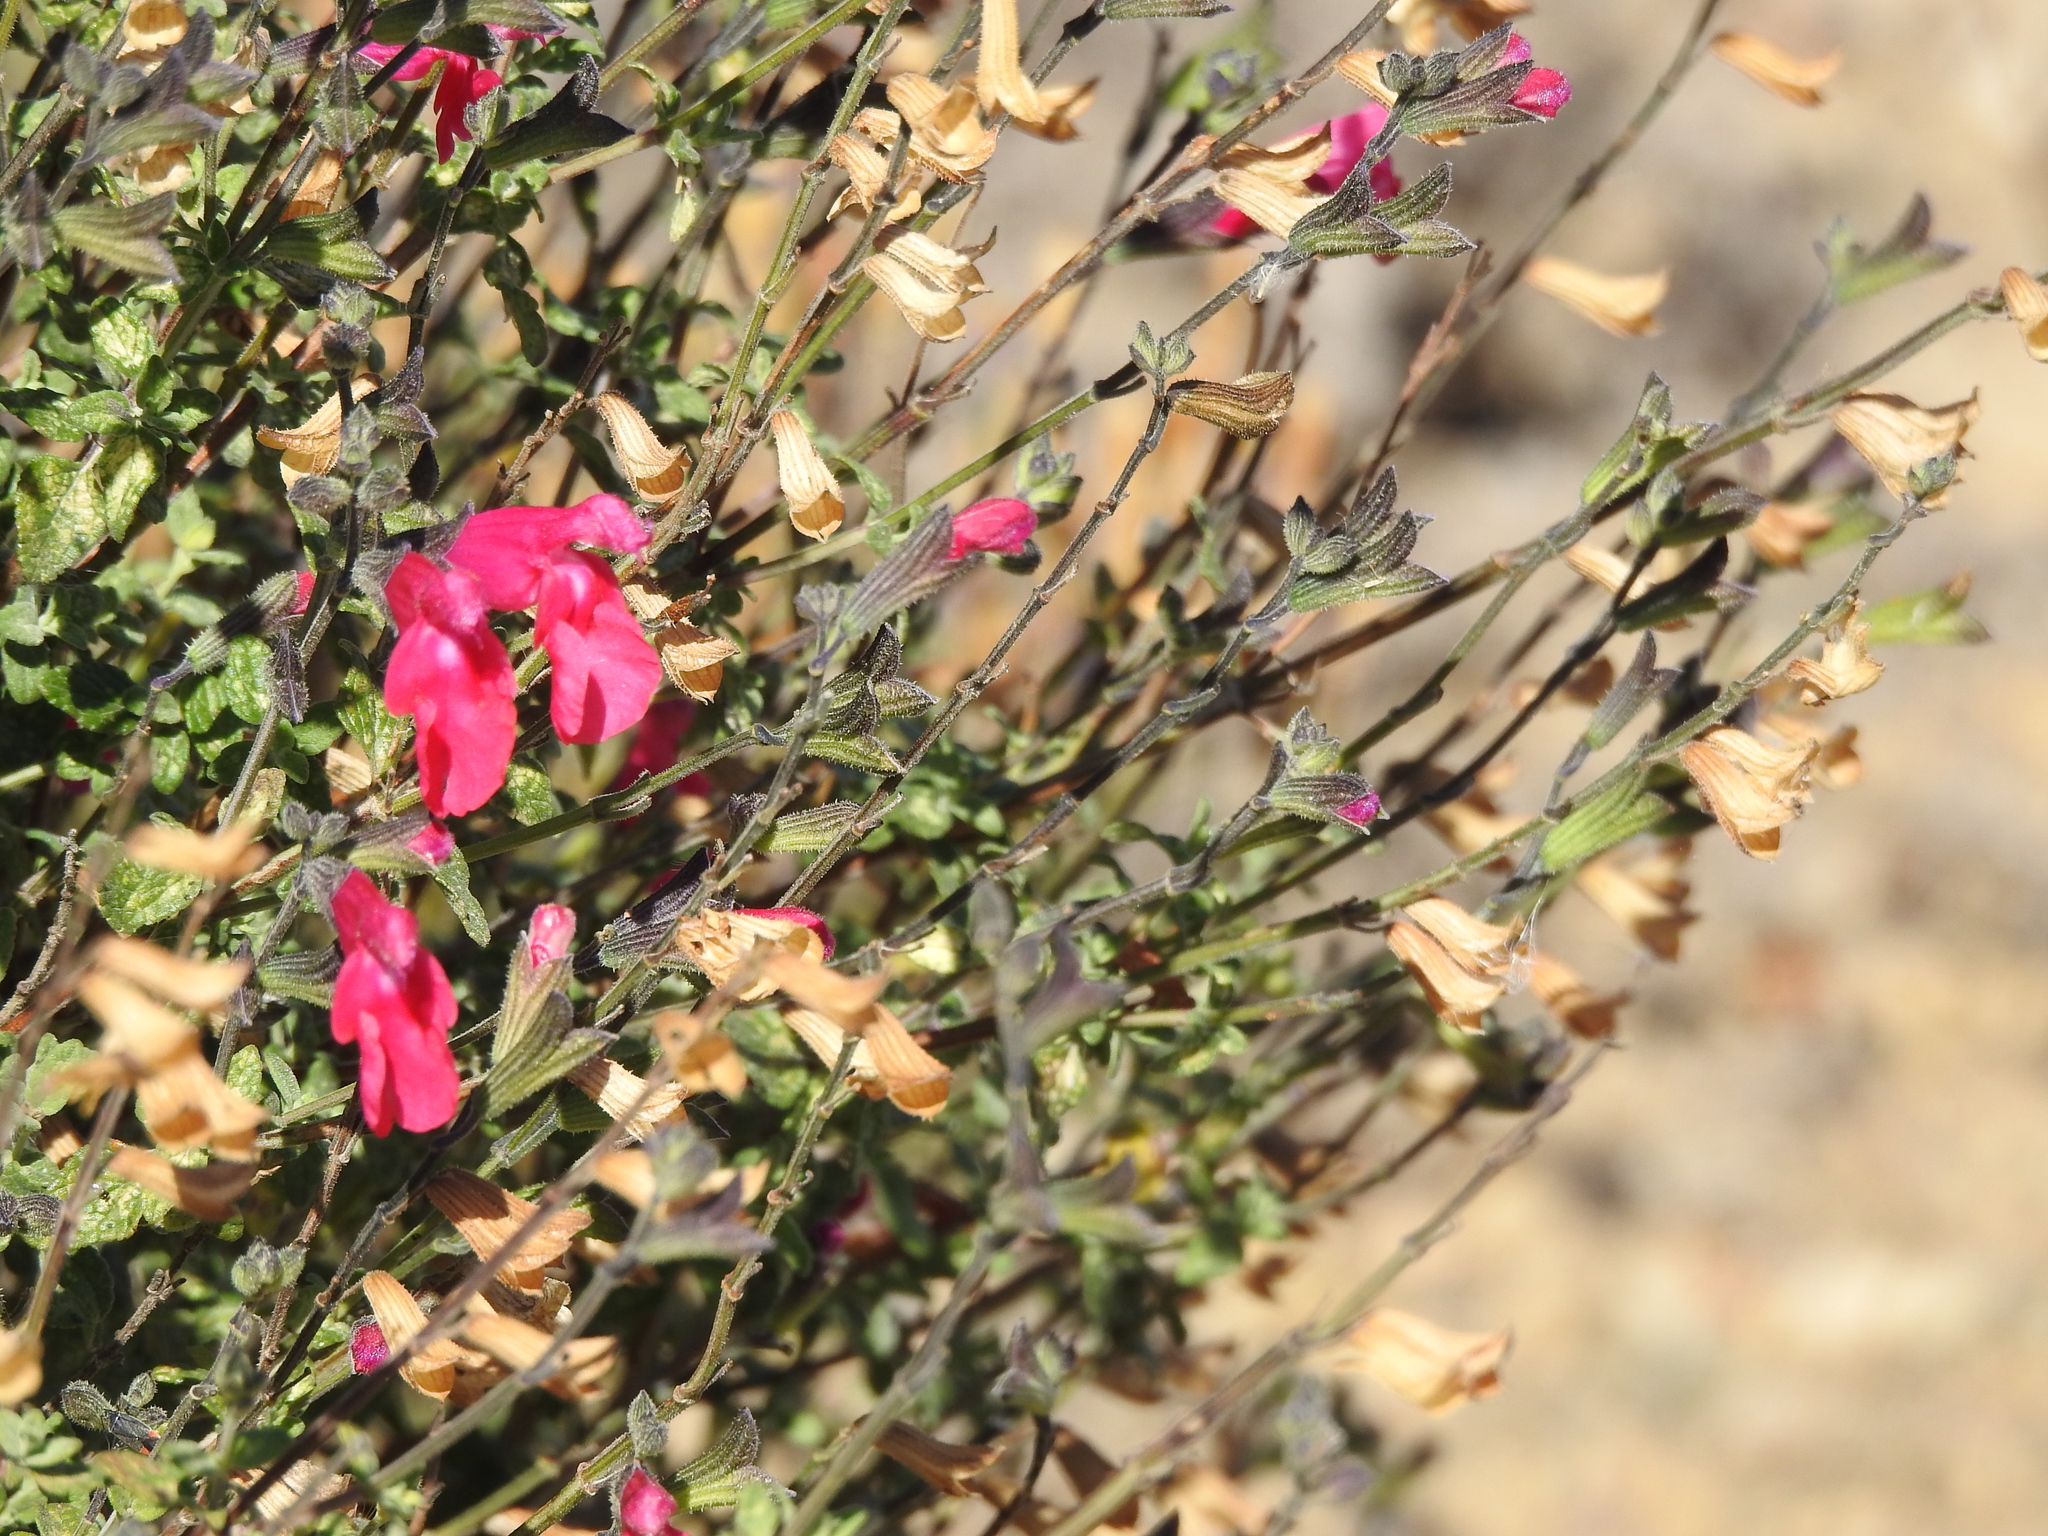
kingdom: Plantae
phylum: Tracheophyta
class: Magnoliopsida
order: Lamiales
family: Lamiaceae
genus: Salvia
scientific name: Salvia microphylla
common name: Baby sage
